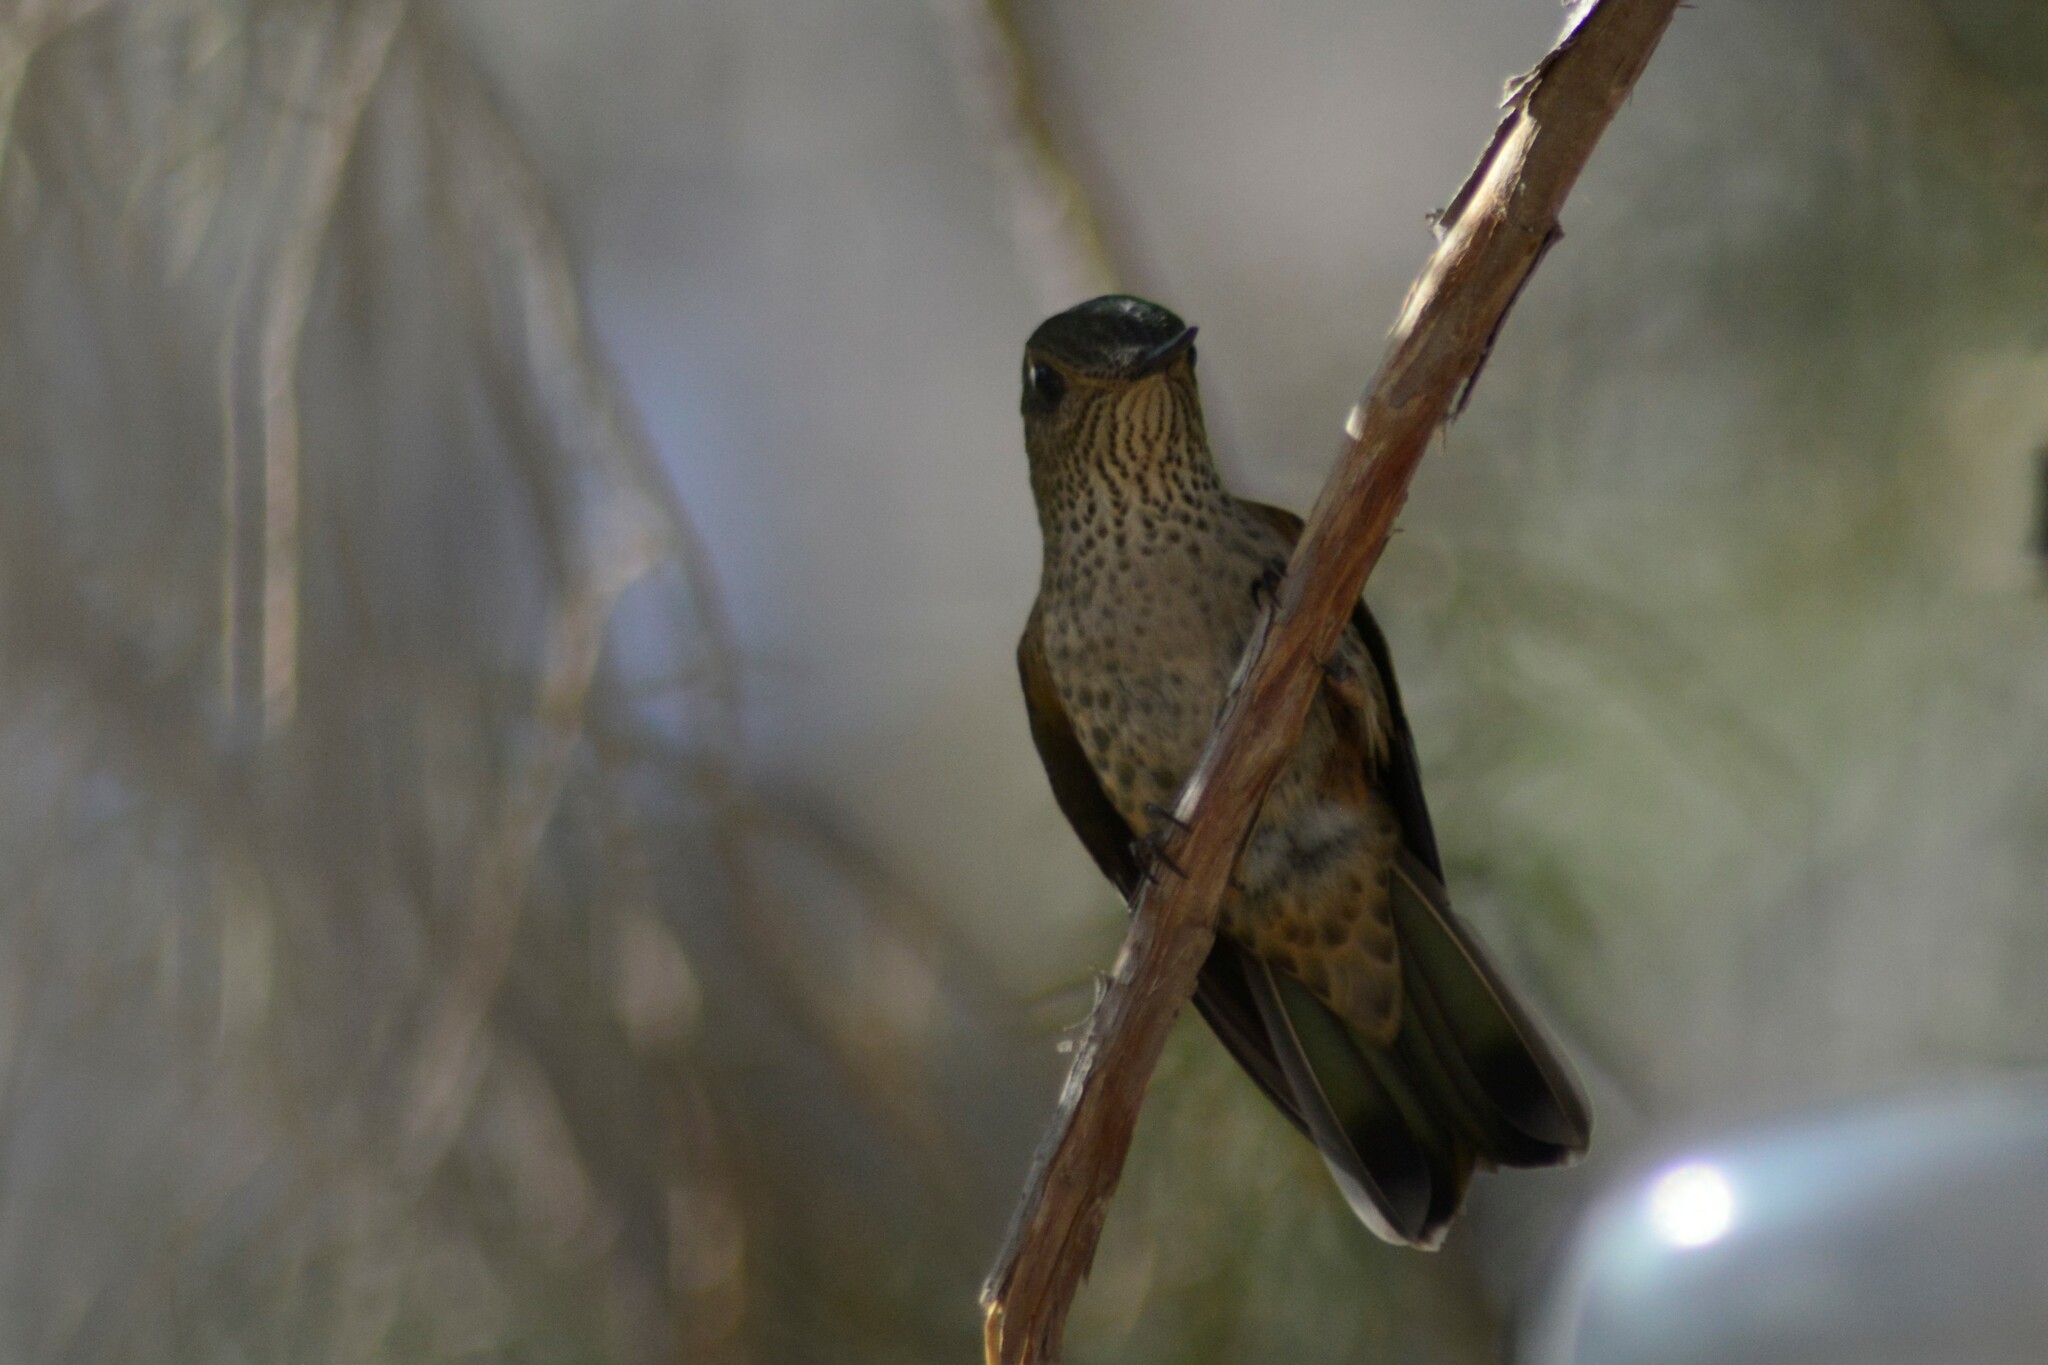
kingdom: Animalia
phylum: Chordata
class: Aves
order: Apodiformes
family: Trochilidae
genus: Sephanoides
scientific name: Sephanoides sephaniodes
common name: Green-backed firecrown
